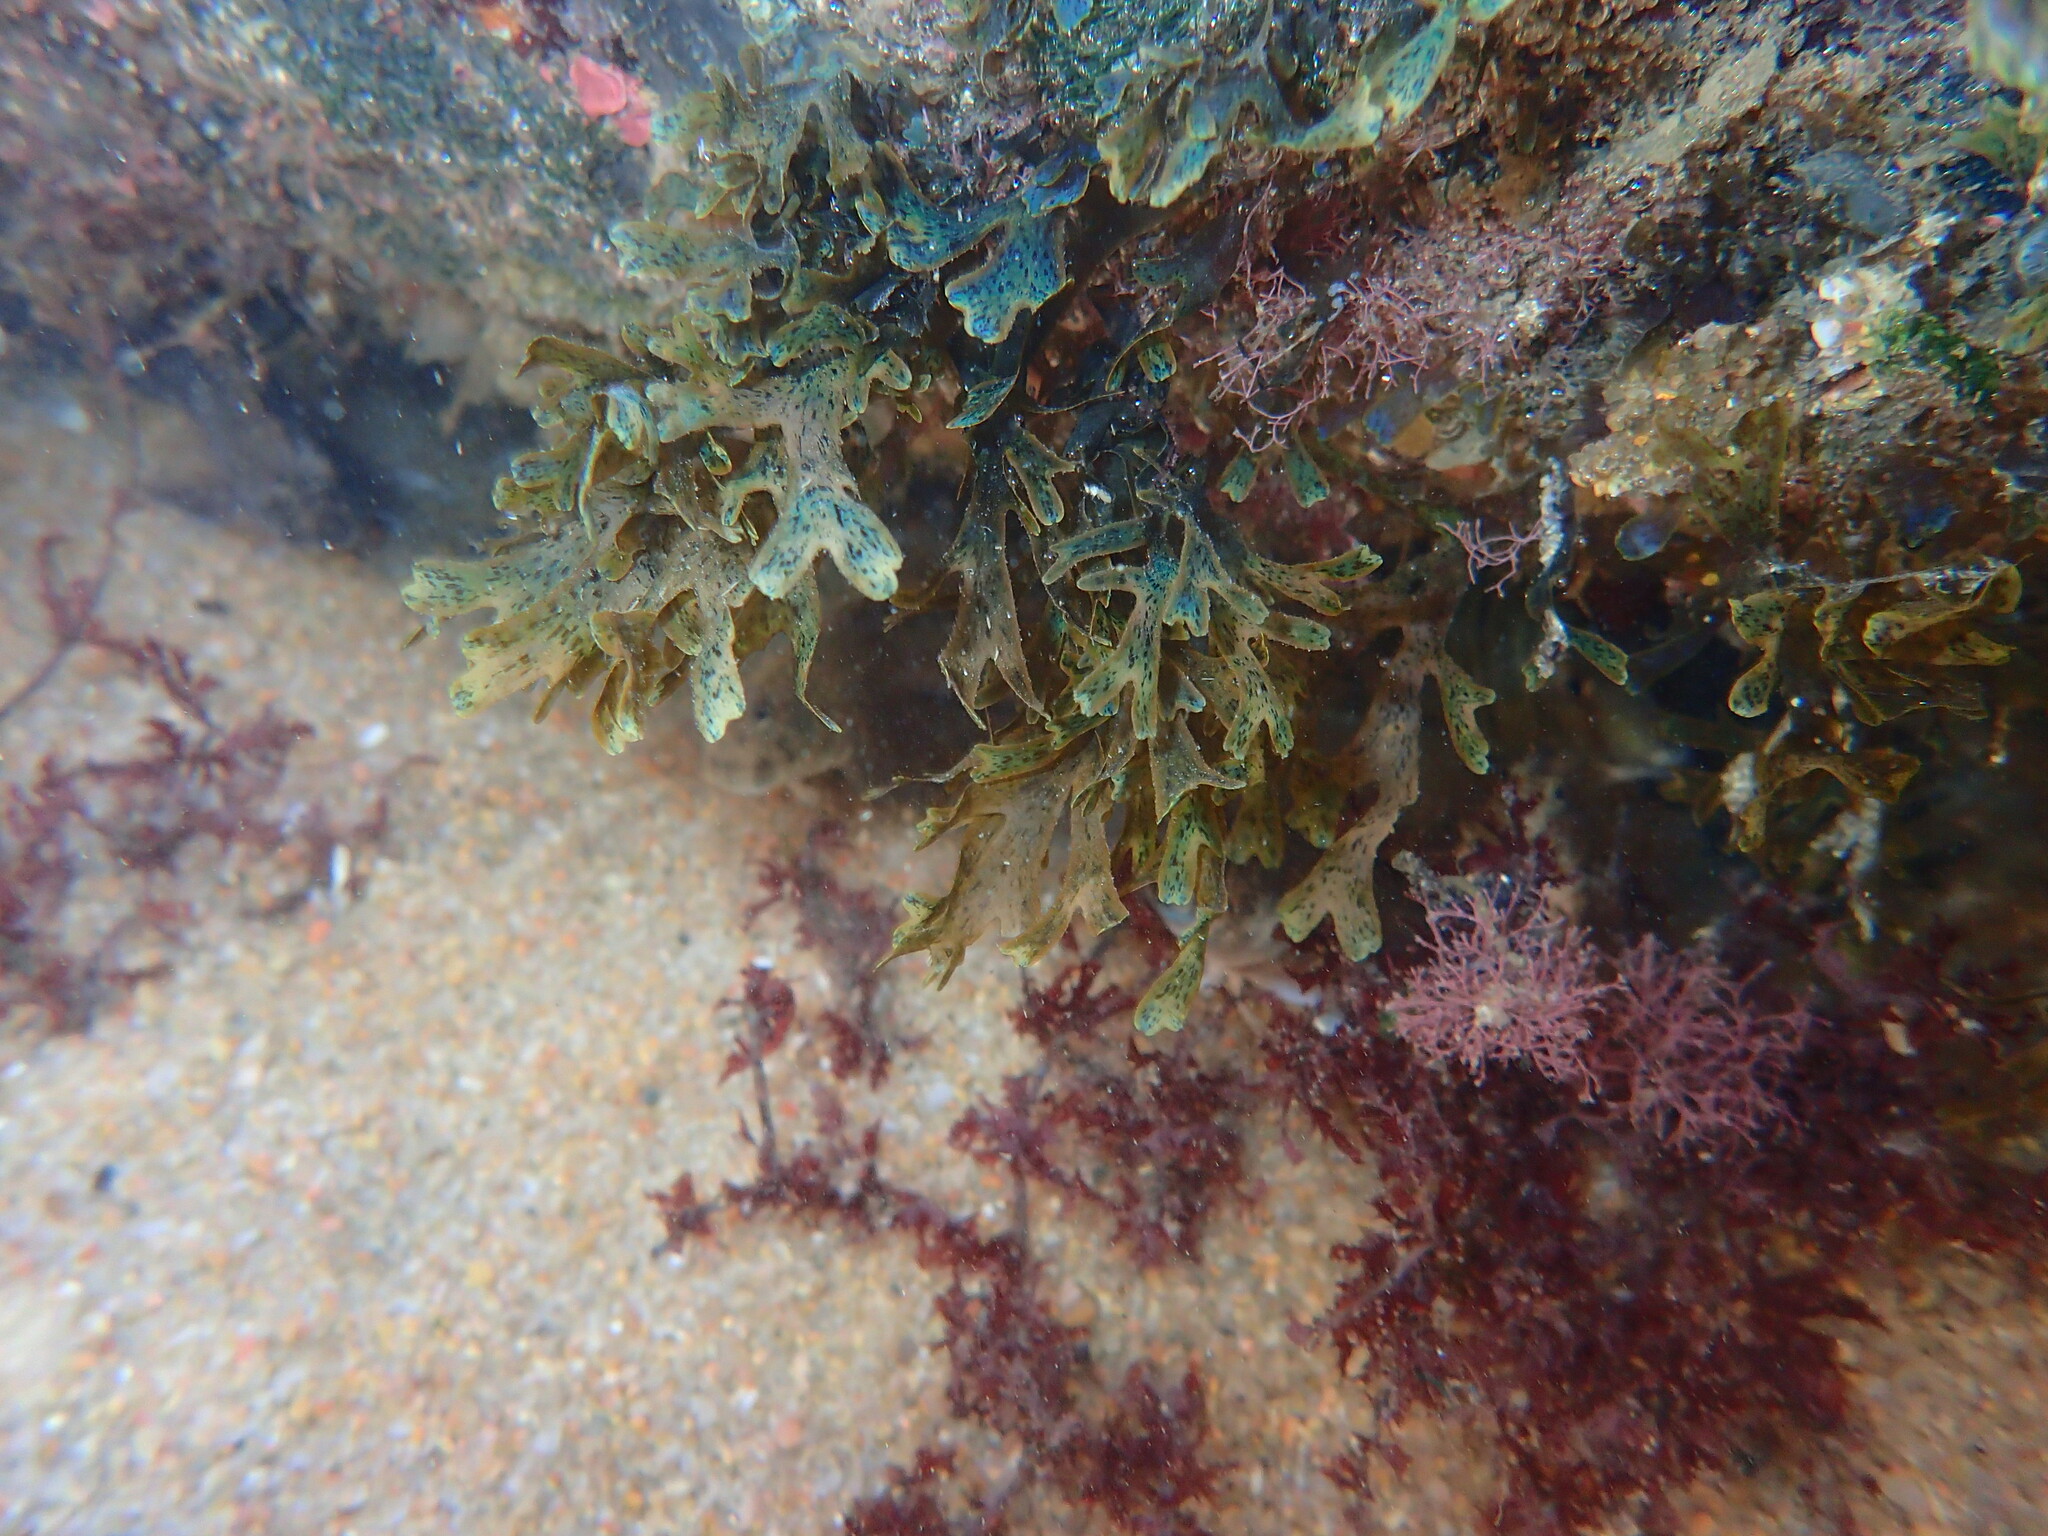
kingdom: Chromista
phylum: Ochrophyta
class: Phaeophyceae
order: Dictyotales
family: Dictyotaceae
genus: Dictyota
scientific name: Dictyota
